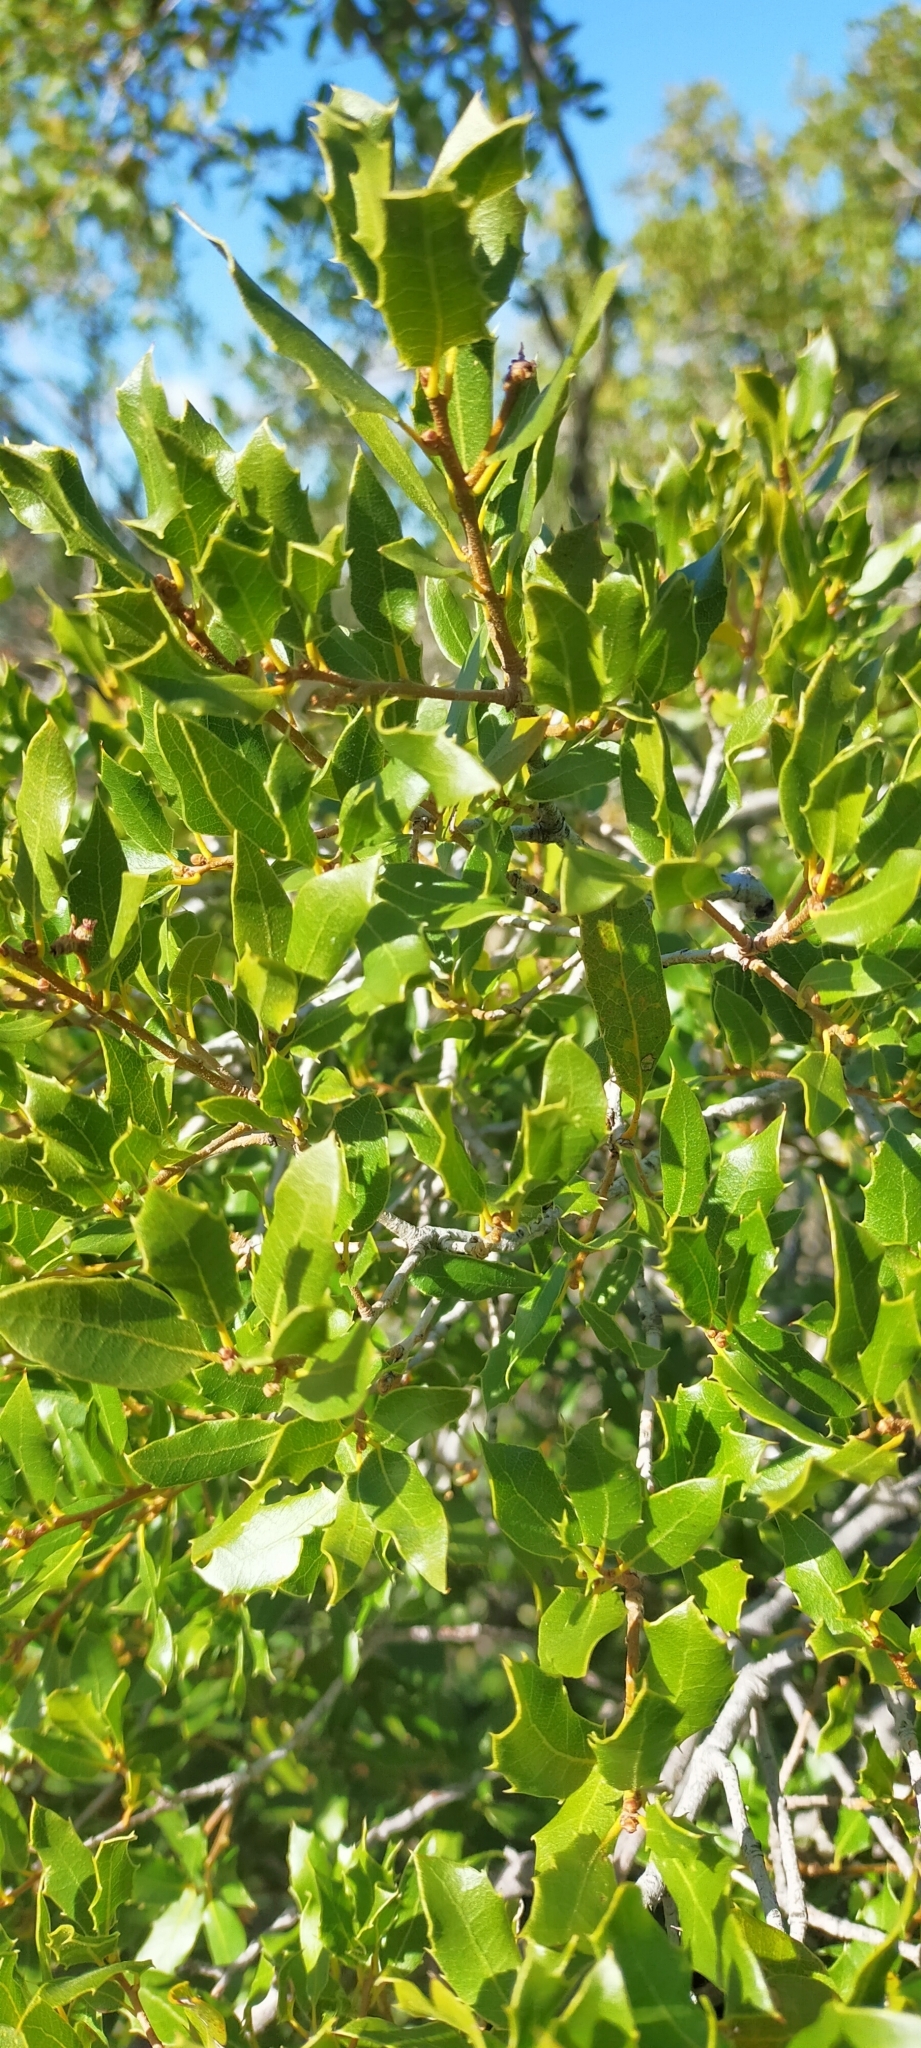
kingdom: Plantae
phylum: Tracheophyta
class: Magnoliopsida
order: Fagales
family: Fagaceae
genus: Quercus
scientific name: Quercus coccifera
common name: Kermes oak
